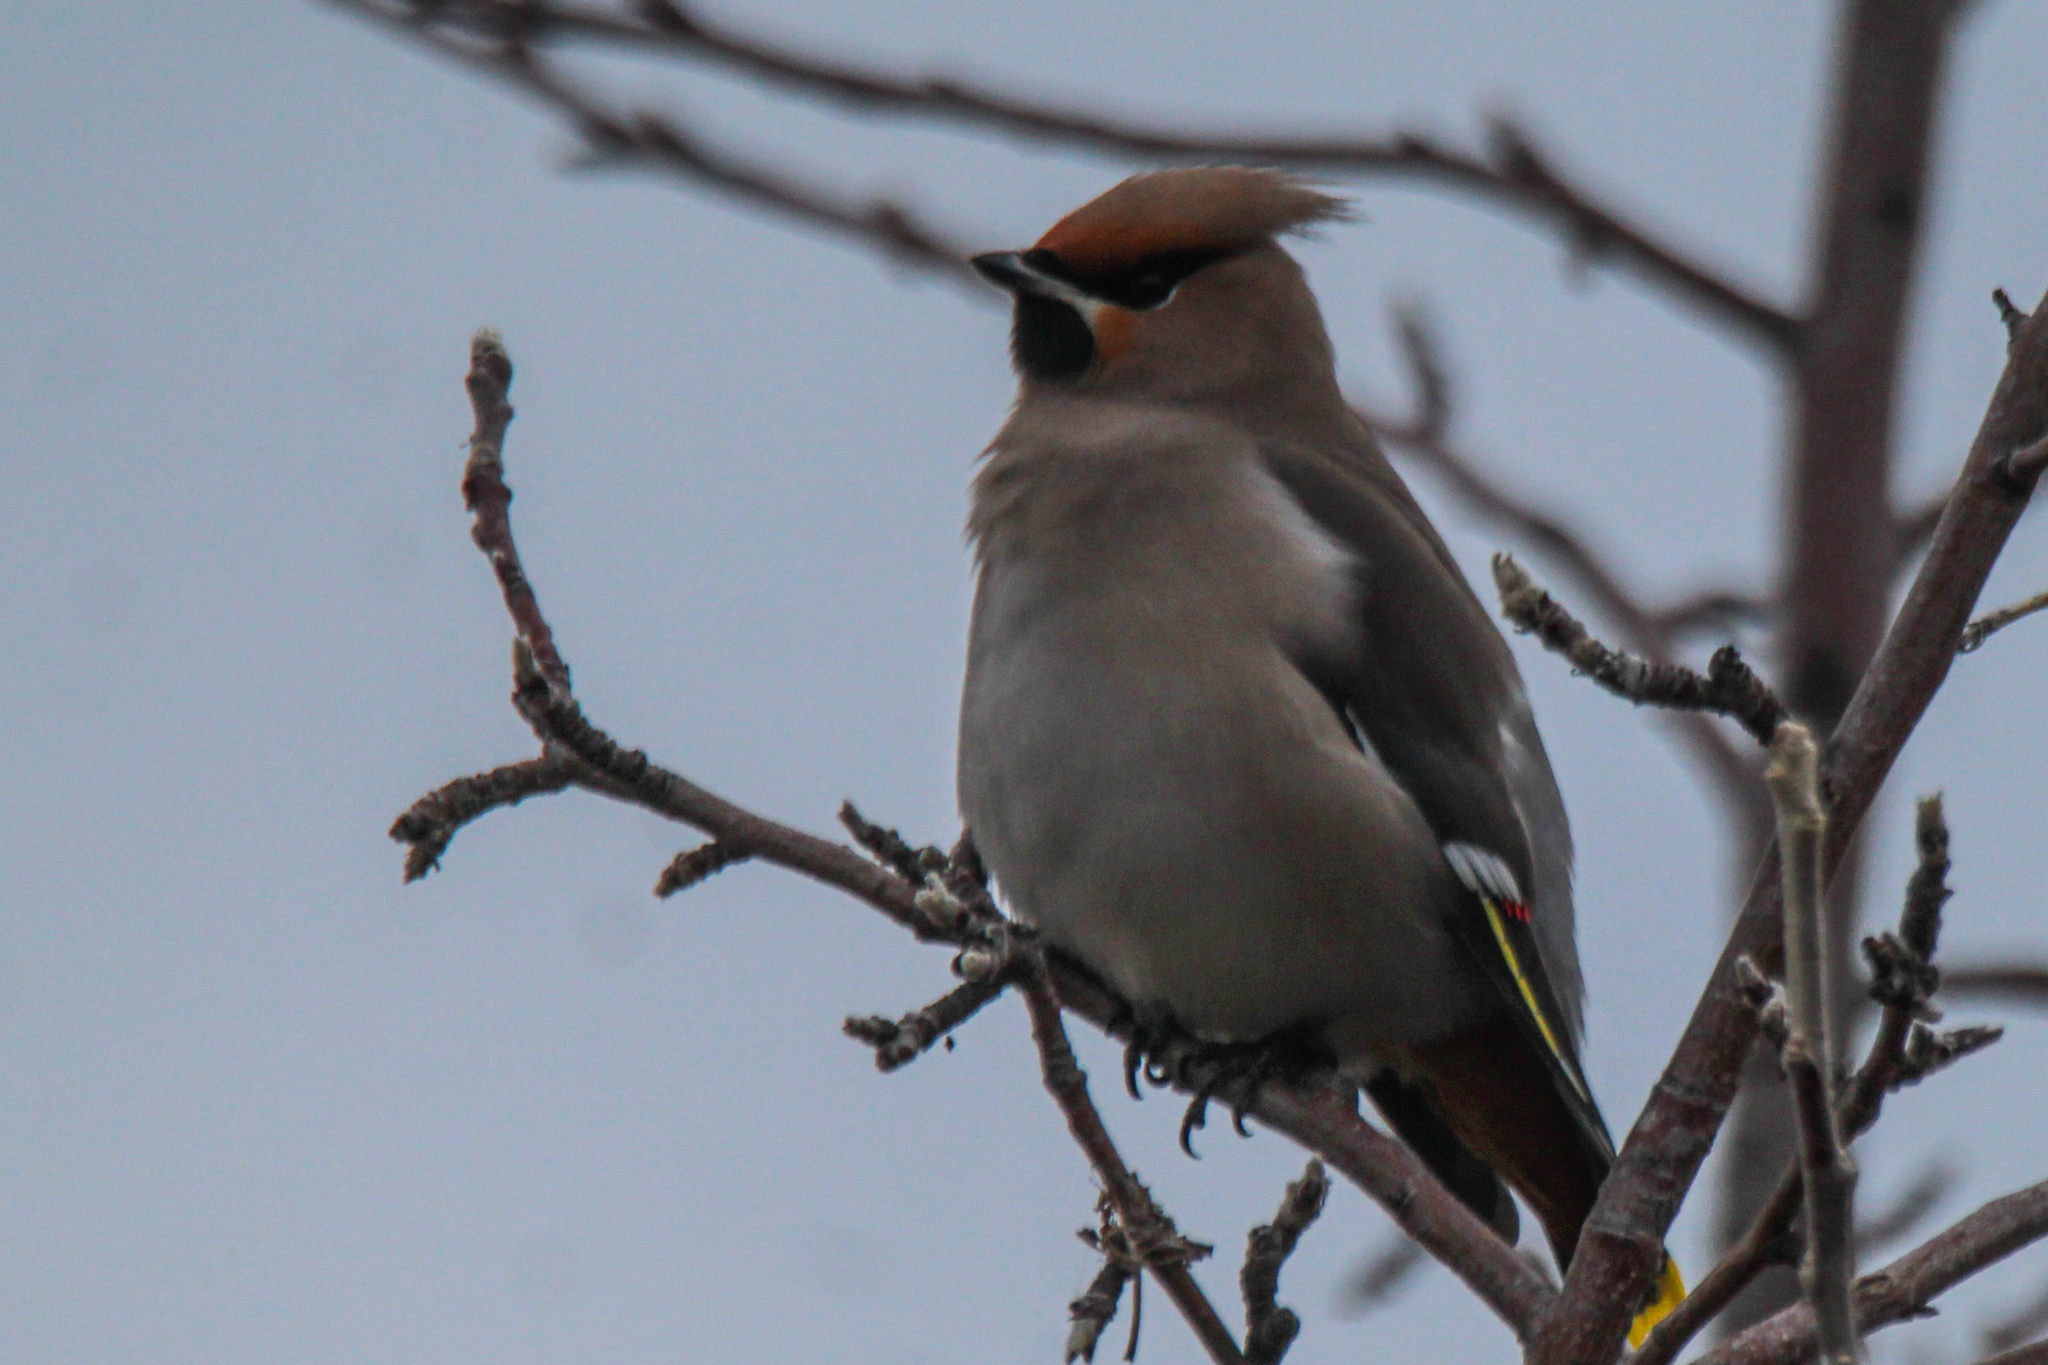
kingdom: Animalia
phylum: Chordata
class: Aves
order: Passeriformes
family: Bombycillidae
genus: Bombycilla
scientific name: Bombycilla garrulus
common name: Bohemian waxwing
